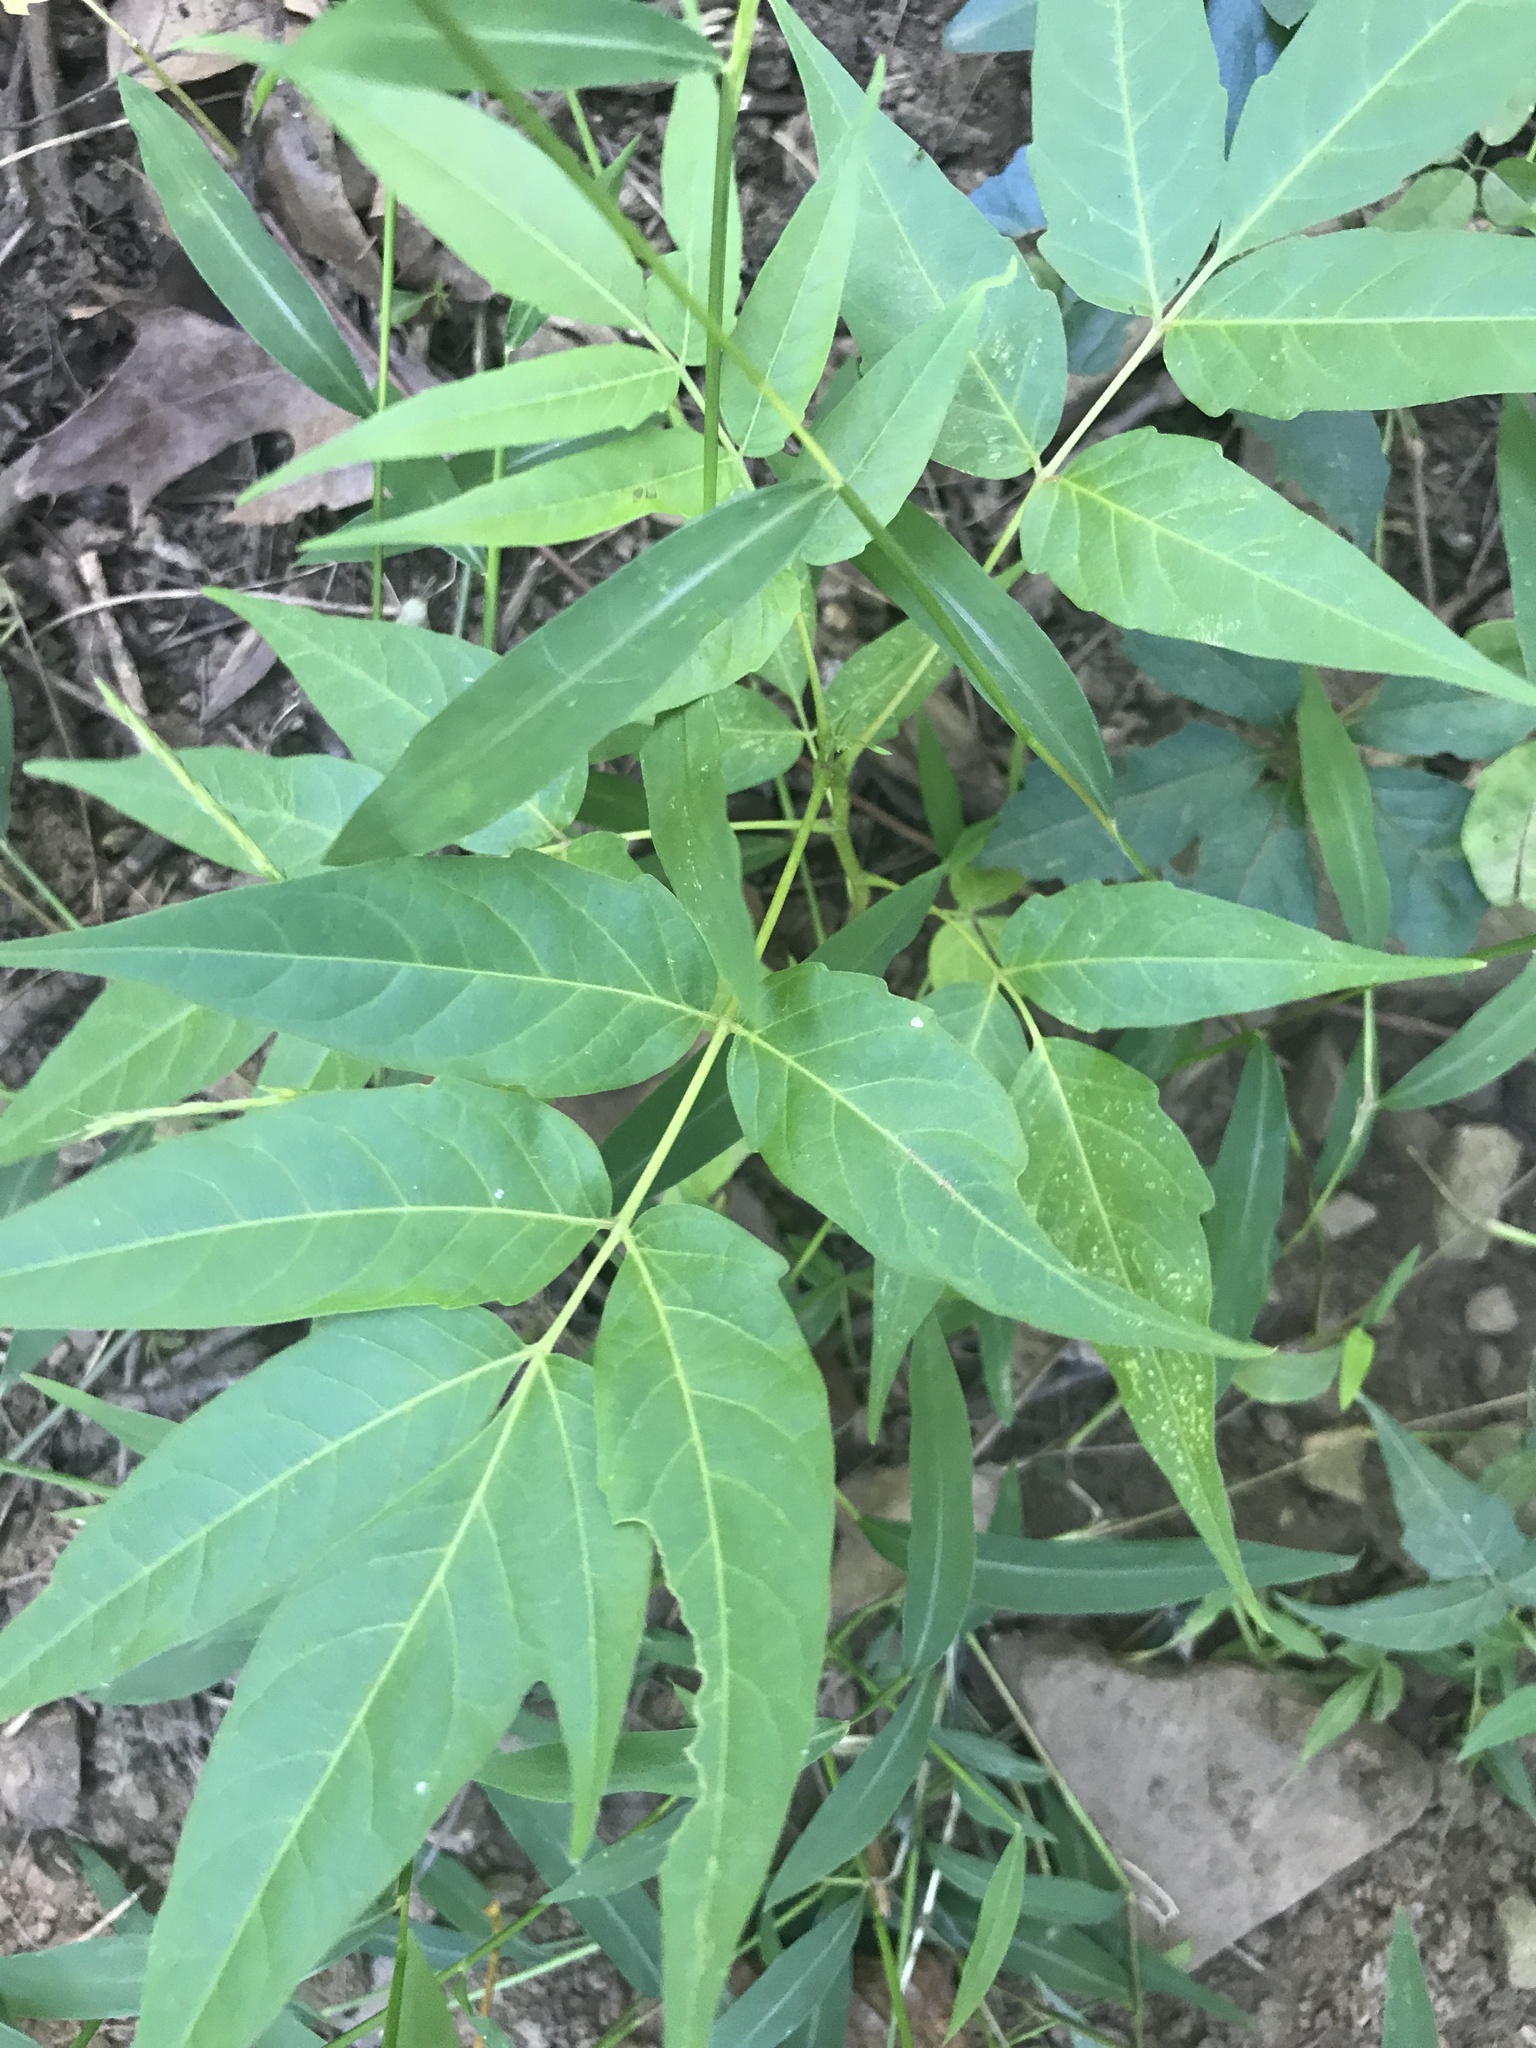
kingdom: Plantae
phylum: Tracheophyta
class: Magnoliopsida
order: Sapindales
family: Simaroubaceae
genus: Ailanthus
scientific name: Ailanthus altissima
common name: Tree-of-heaven
